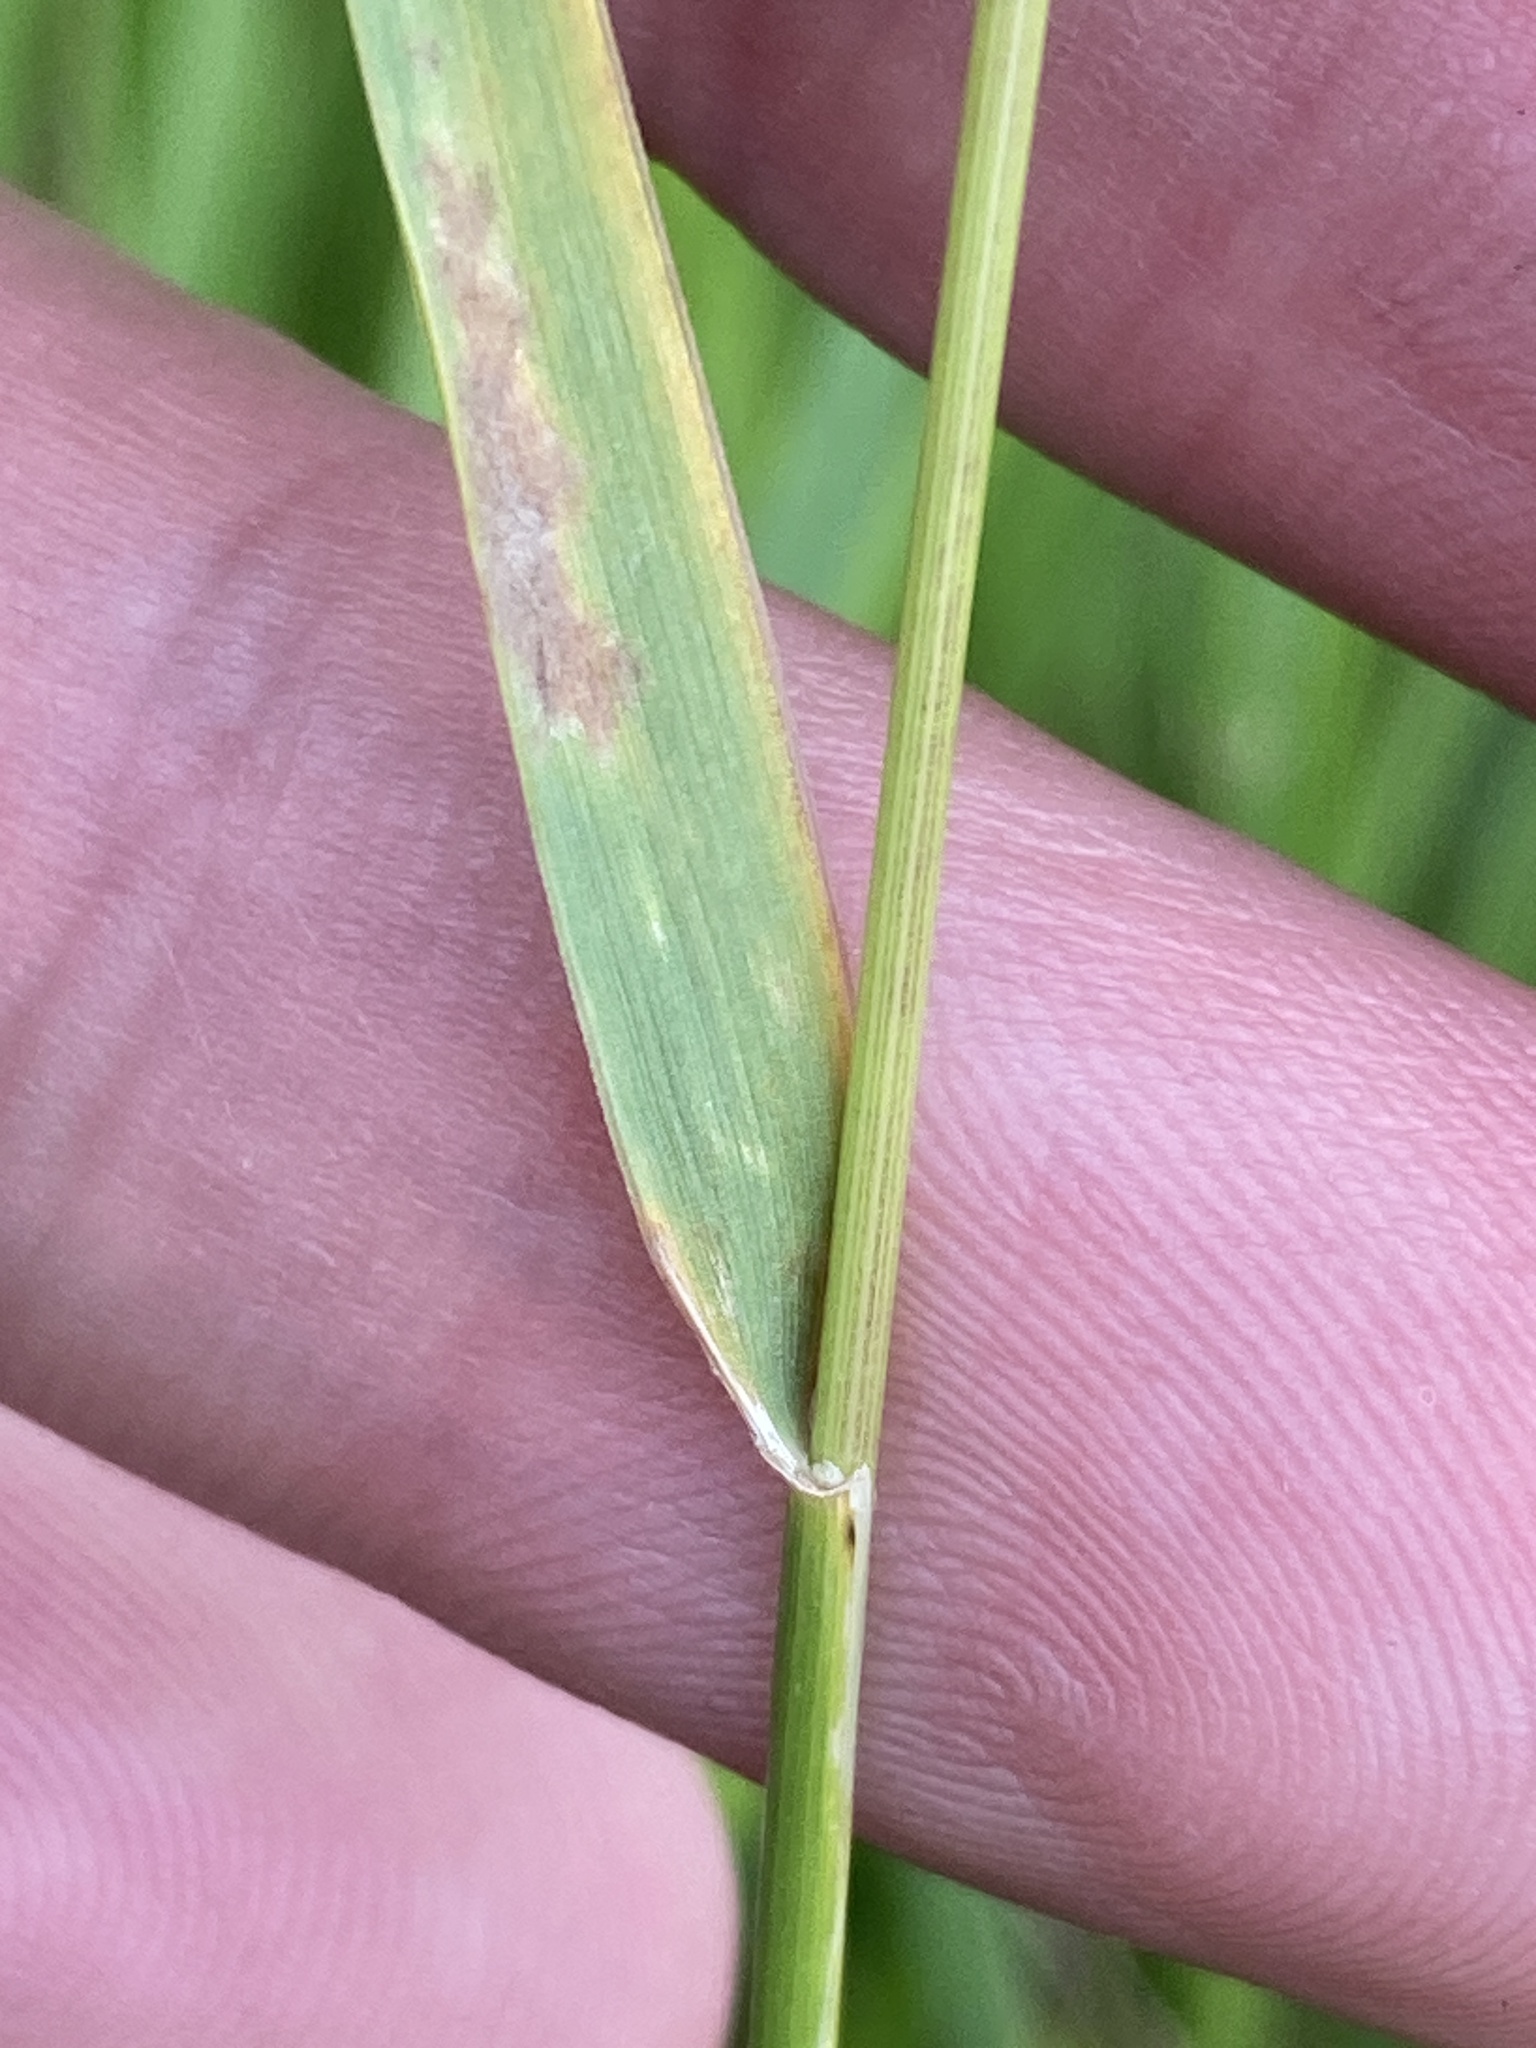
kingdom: Plantae
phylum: Tracheophyta
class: Liliopsida
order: Poales
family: Poaceae
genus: Elymus
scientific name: Elymus repens
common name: Quackgrass
